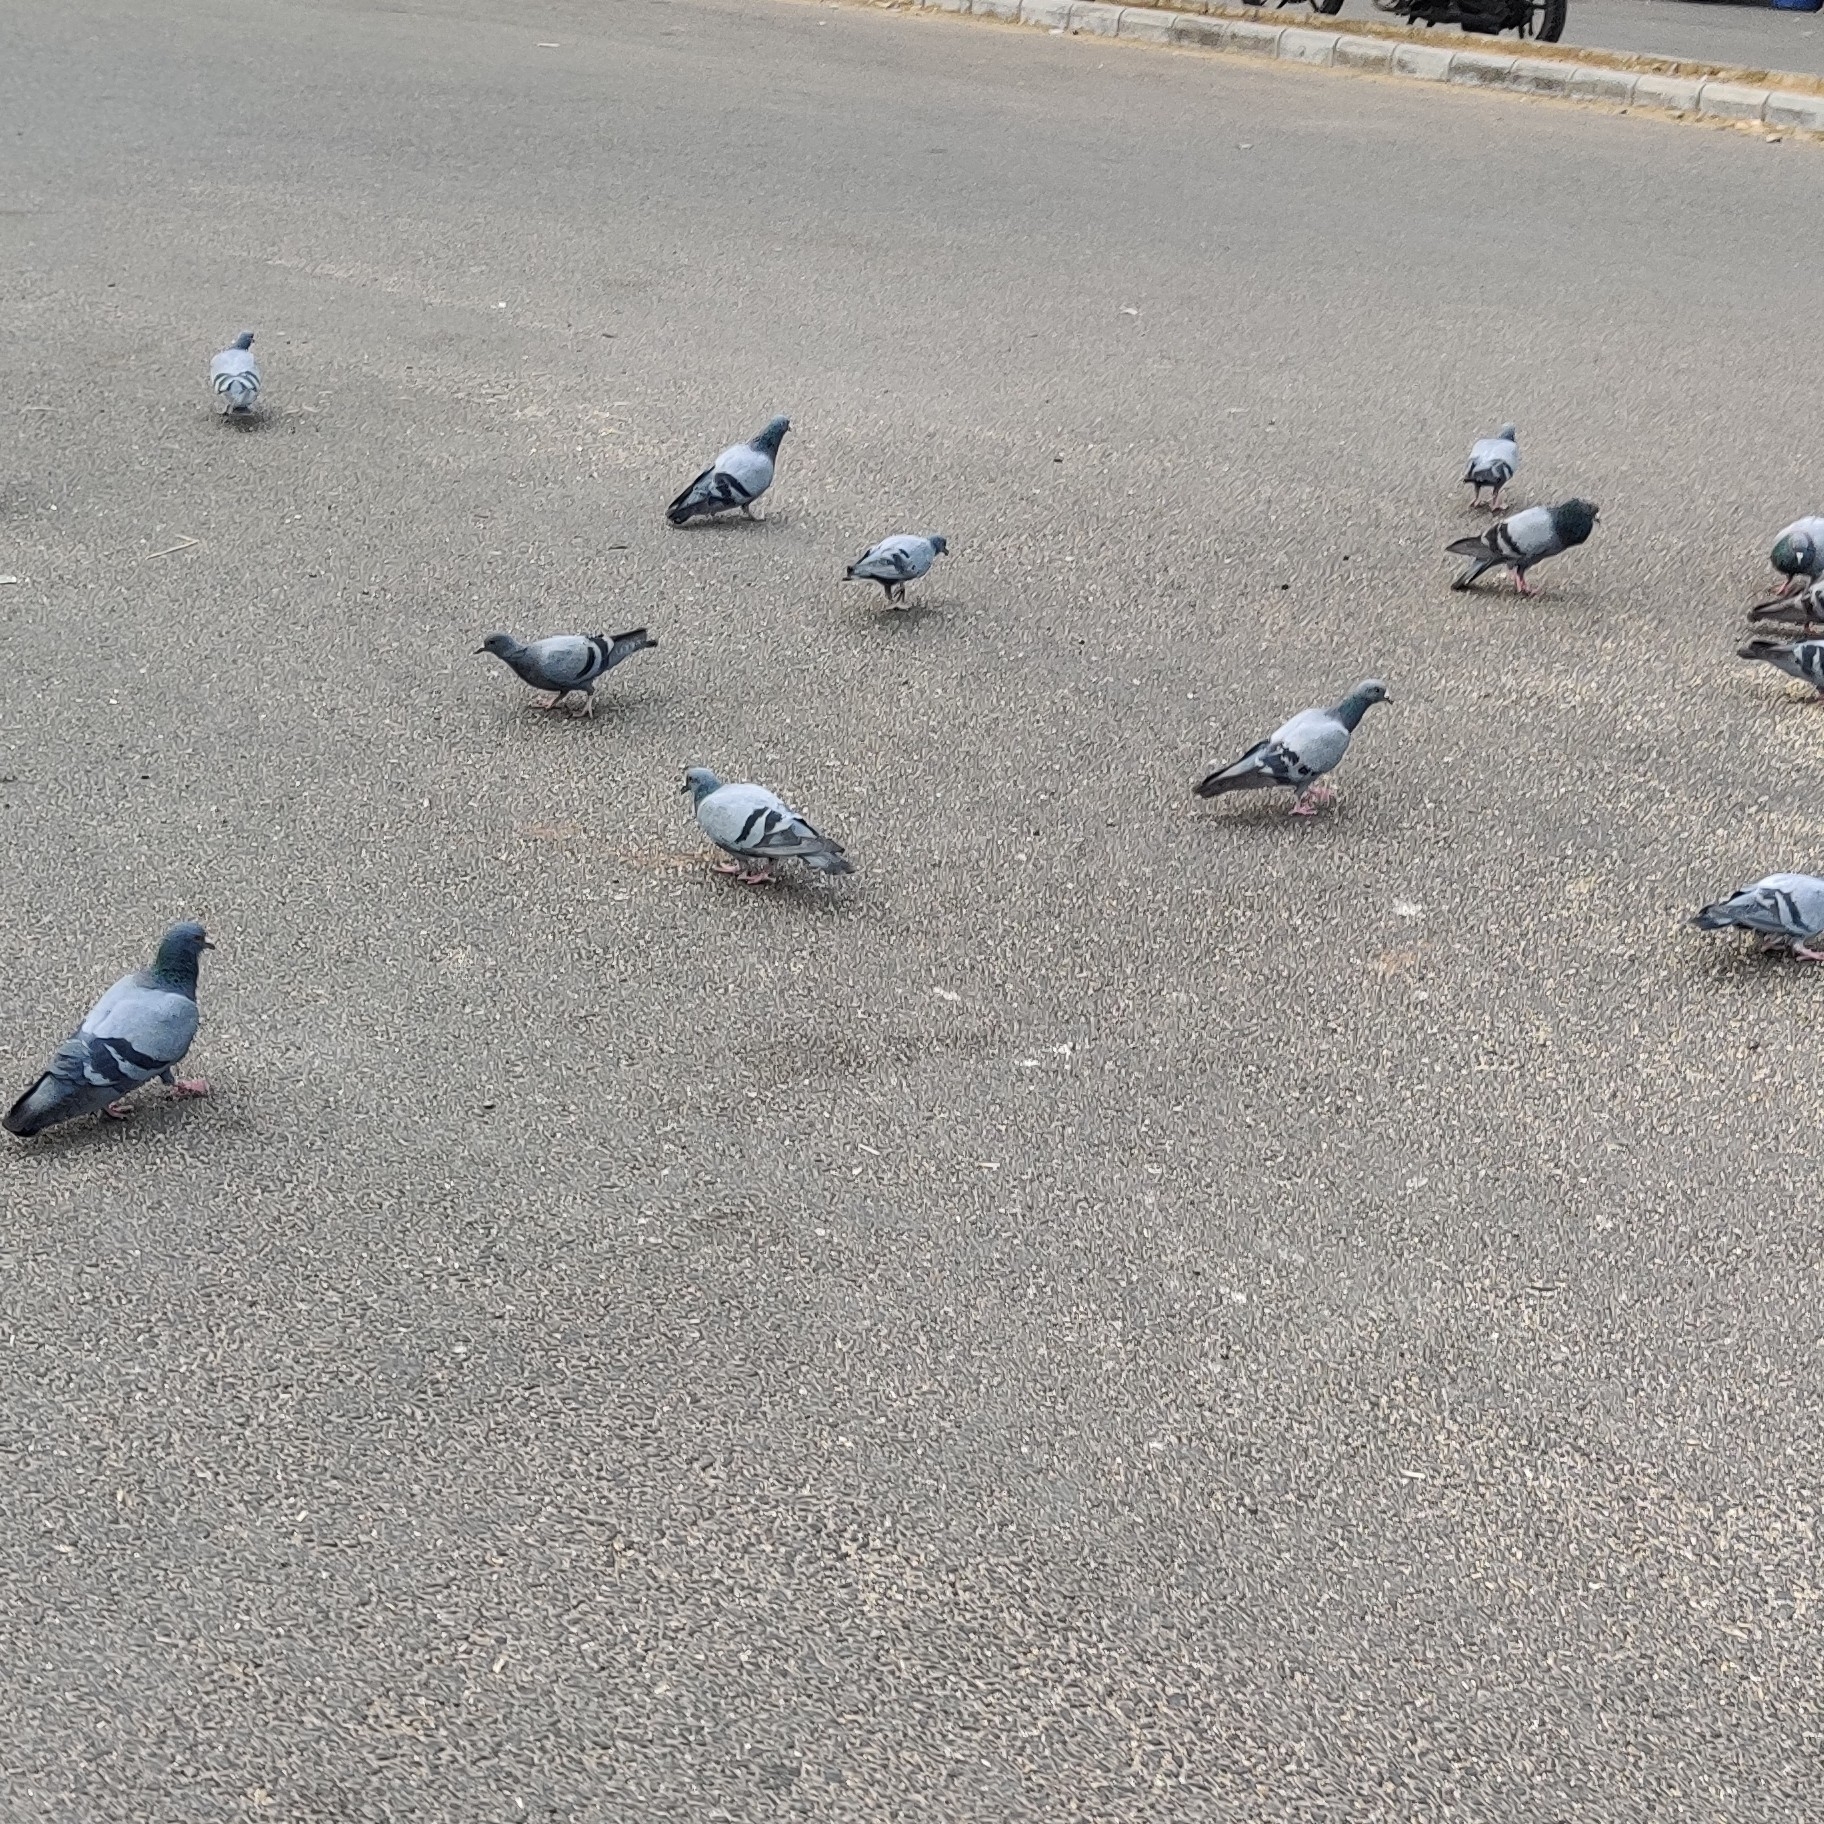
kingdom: Animalia
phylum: Chordata
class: Aves
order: Columbiformes
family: Columbidae
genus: Columba
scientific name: Columba livia
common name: Rock pigeon
